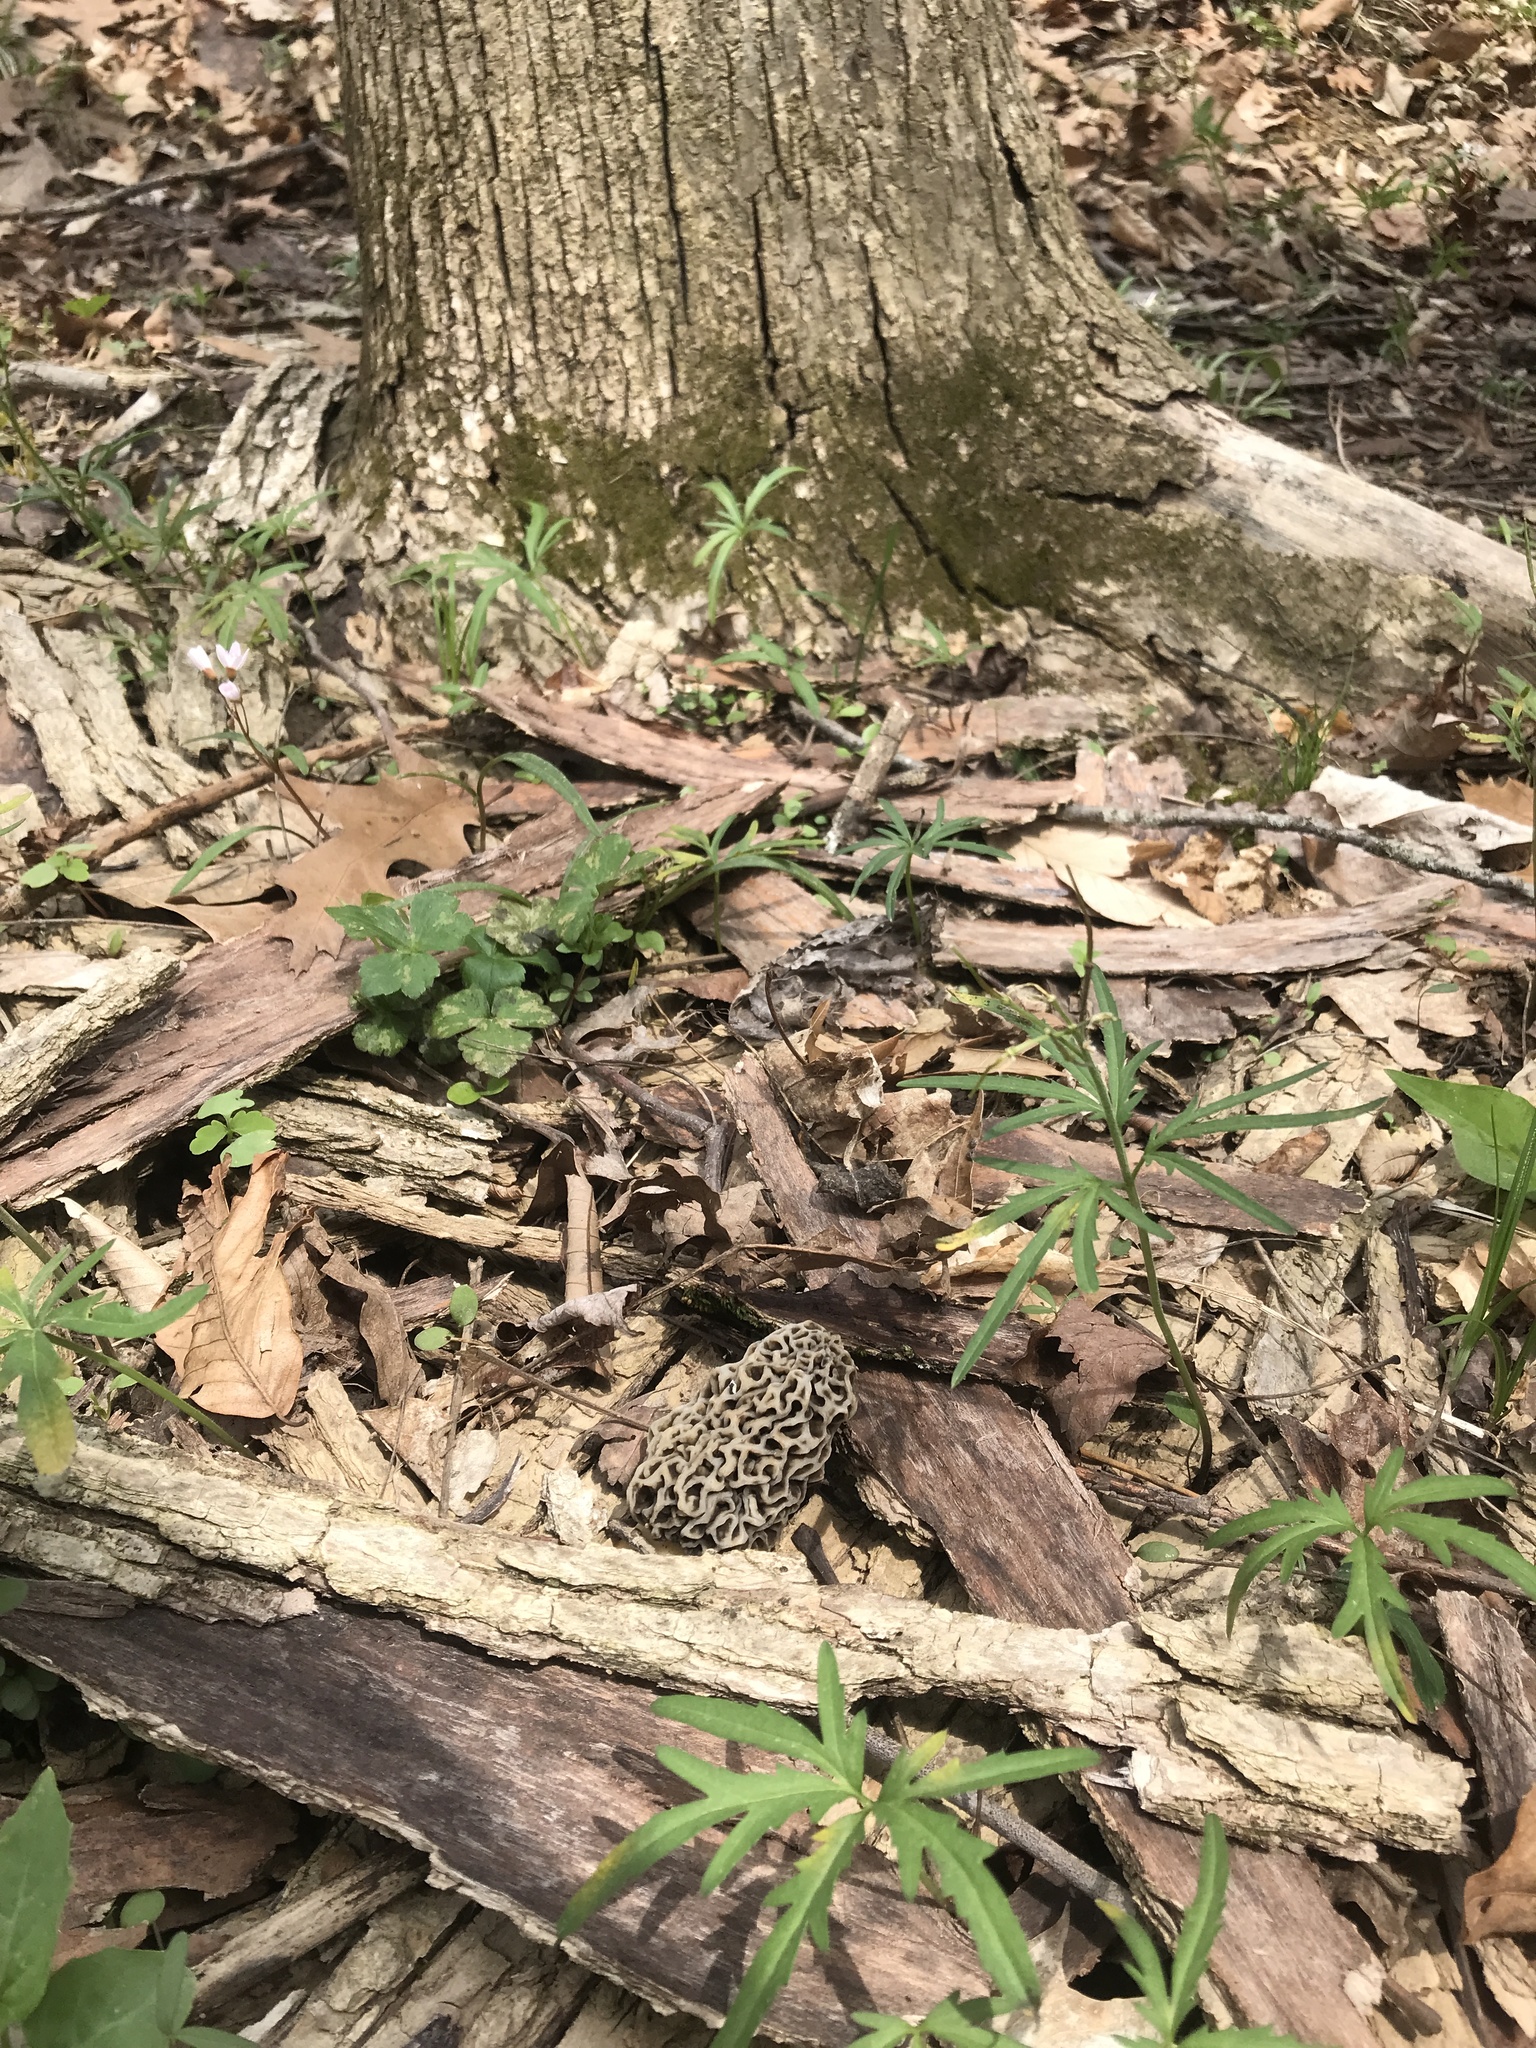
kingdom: Fungi
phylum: Ascomycota
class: Pezizomycetes
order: Pezizales
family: Morchellaceae
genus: Morchella
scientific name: Morchella americana
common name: White morel
